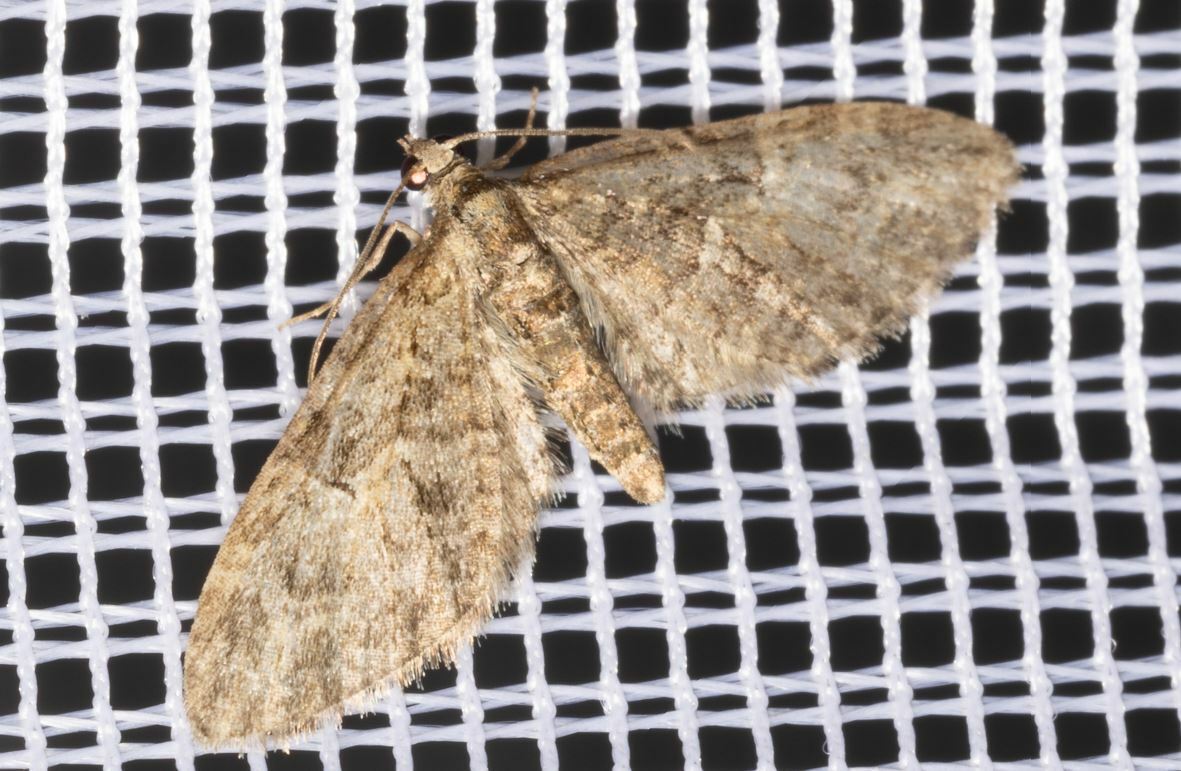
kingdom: Animalia
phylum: Arthropoda
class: Insecta
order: Lepidoptera
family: Geometridae
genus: Eupithecia
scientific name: Eupithecia abbreviata
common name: Brindled pug
